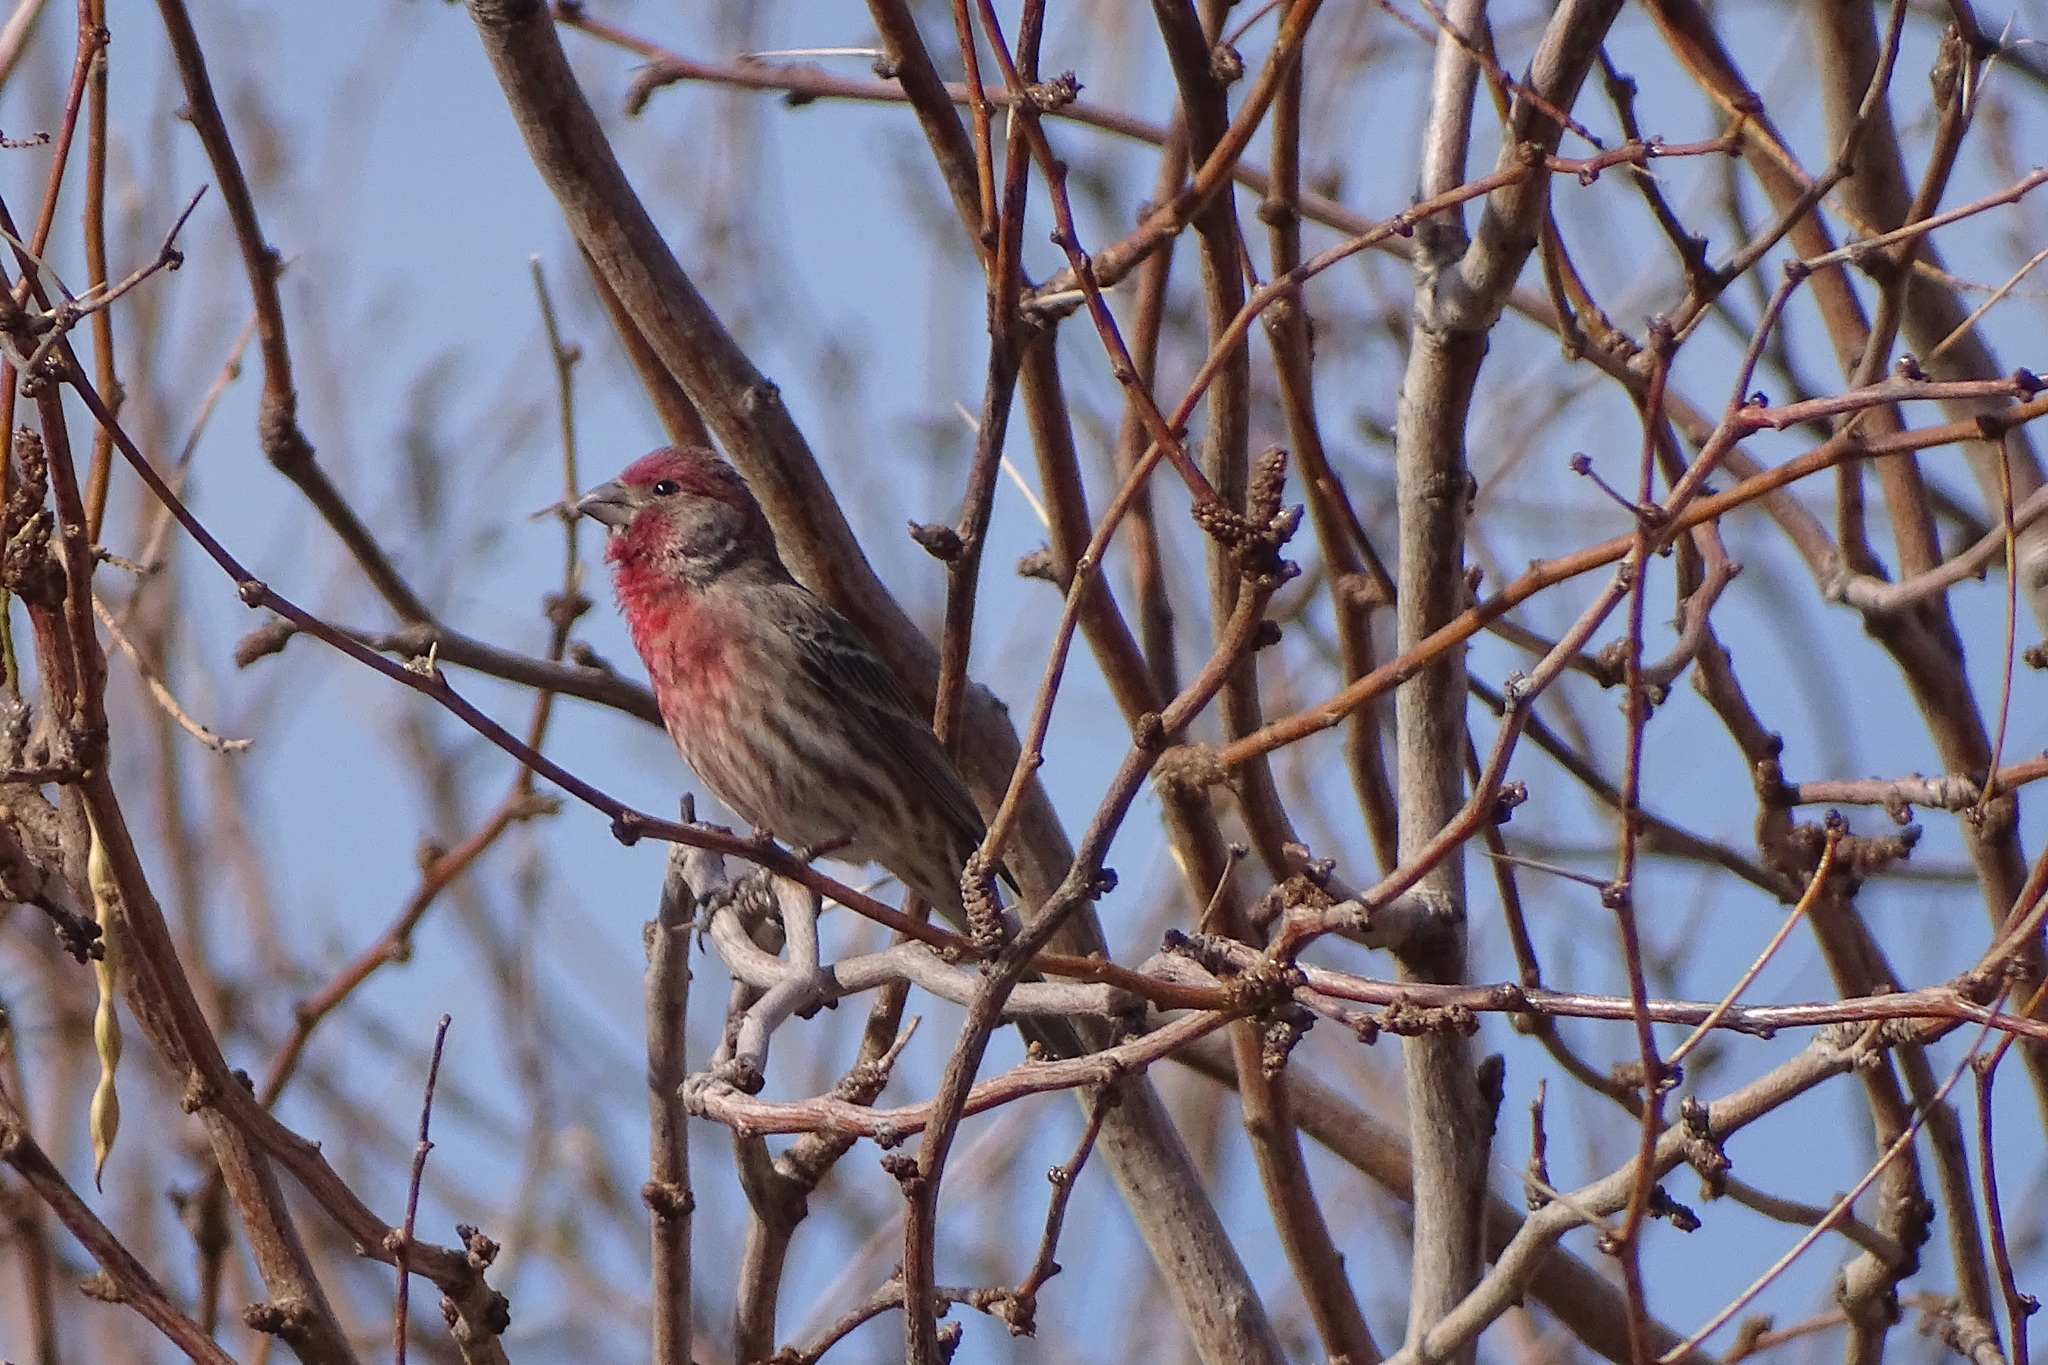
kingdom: Animalia
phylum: Chordata
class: Aves
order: Passeriformes
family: Fringillidae
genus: Haemorhous
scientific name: Haemorhous mexicanus
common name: House finch
